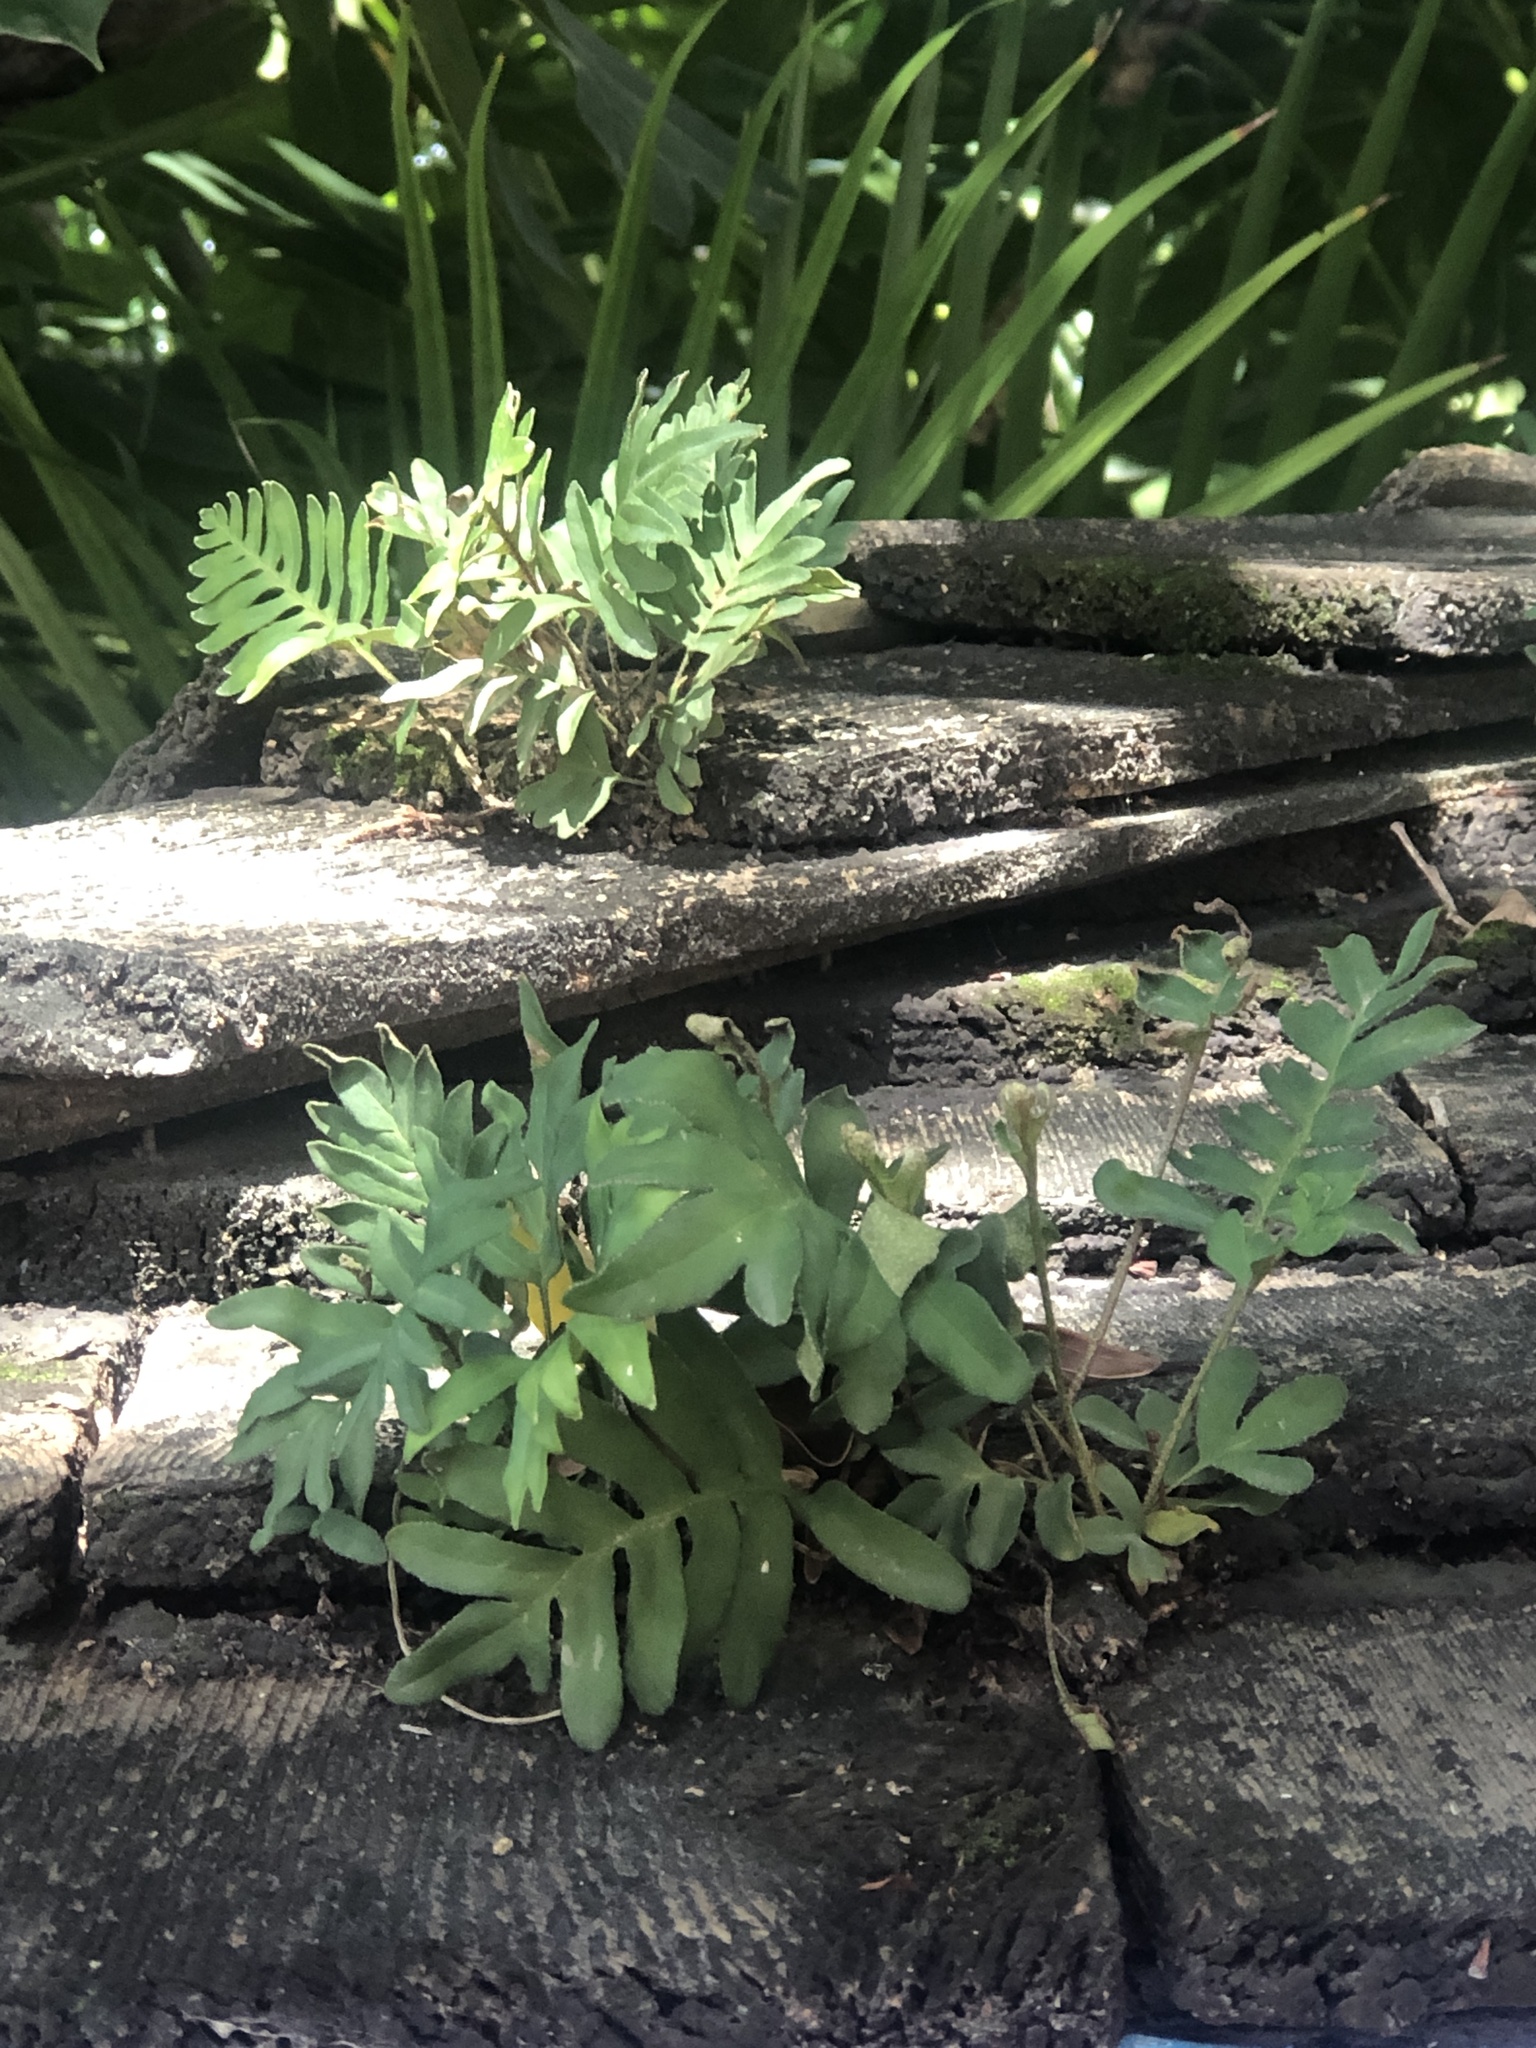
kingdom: Plantae
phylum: Tracheophyta
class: Polypodiopsida
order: Polypodiales
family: Polypodiaceae
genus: Pleopeltis
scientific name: Pleopeltis michauxiana
